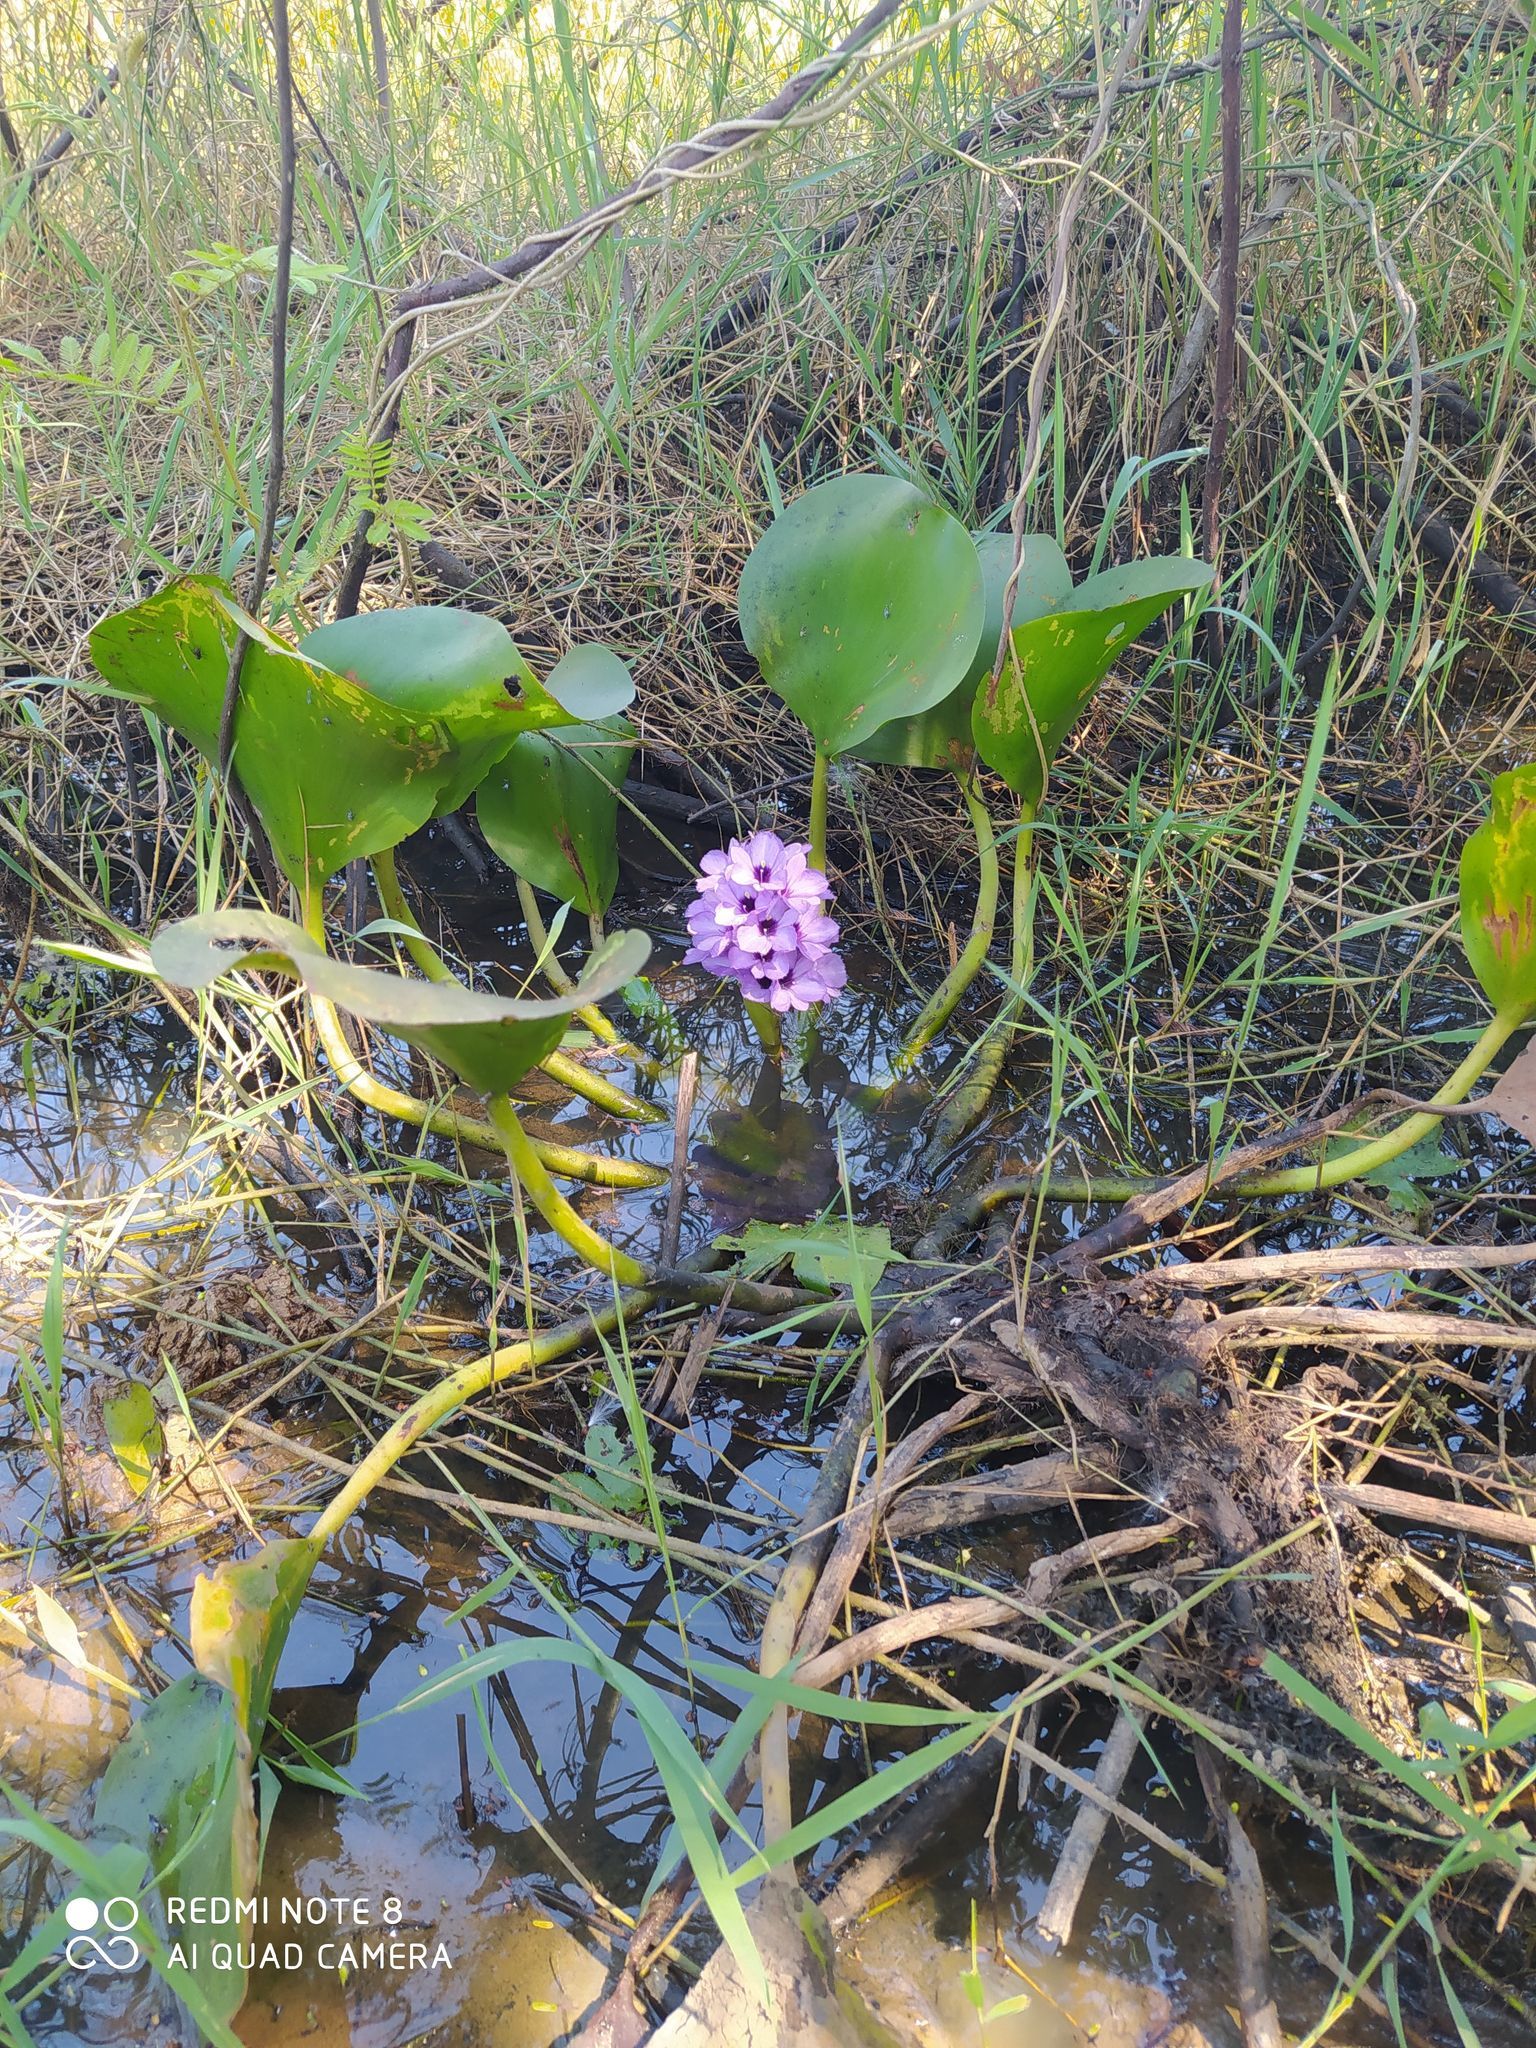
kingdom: Plantae
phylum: Tracheophyta
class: Liliopsida
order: Commelinales
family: Pontederiaceae
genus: Pontederia
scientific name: Pontederia azurea
